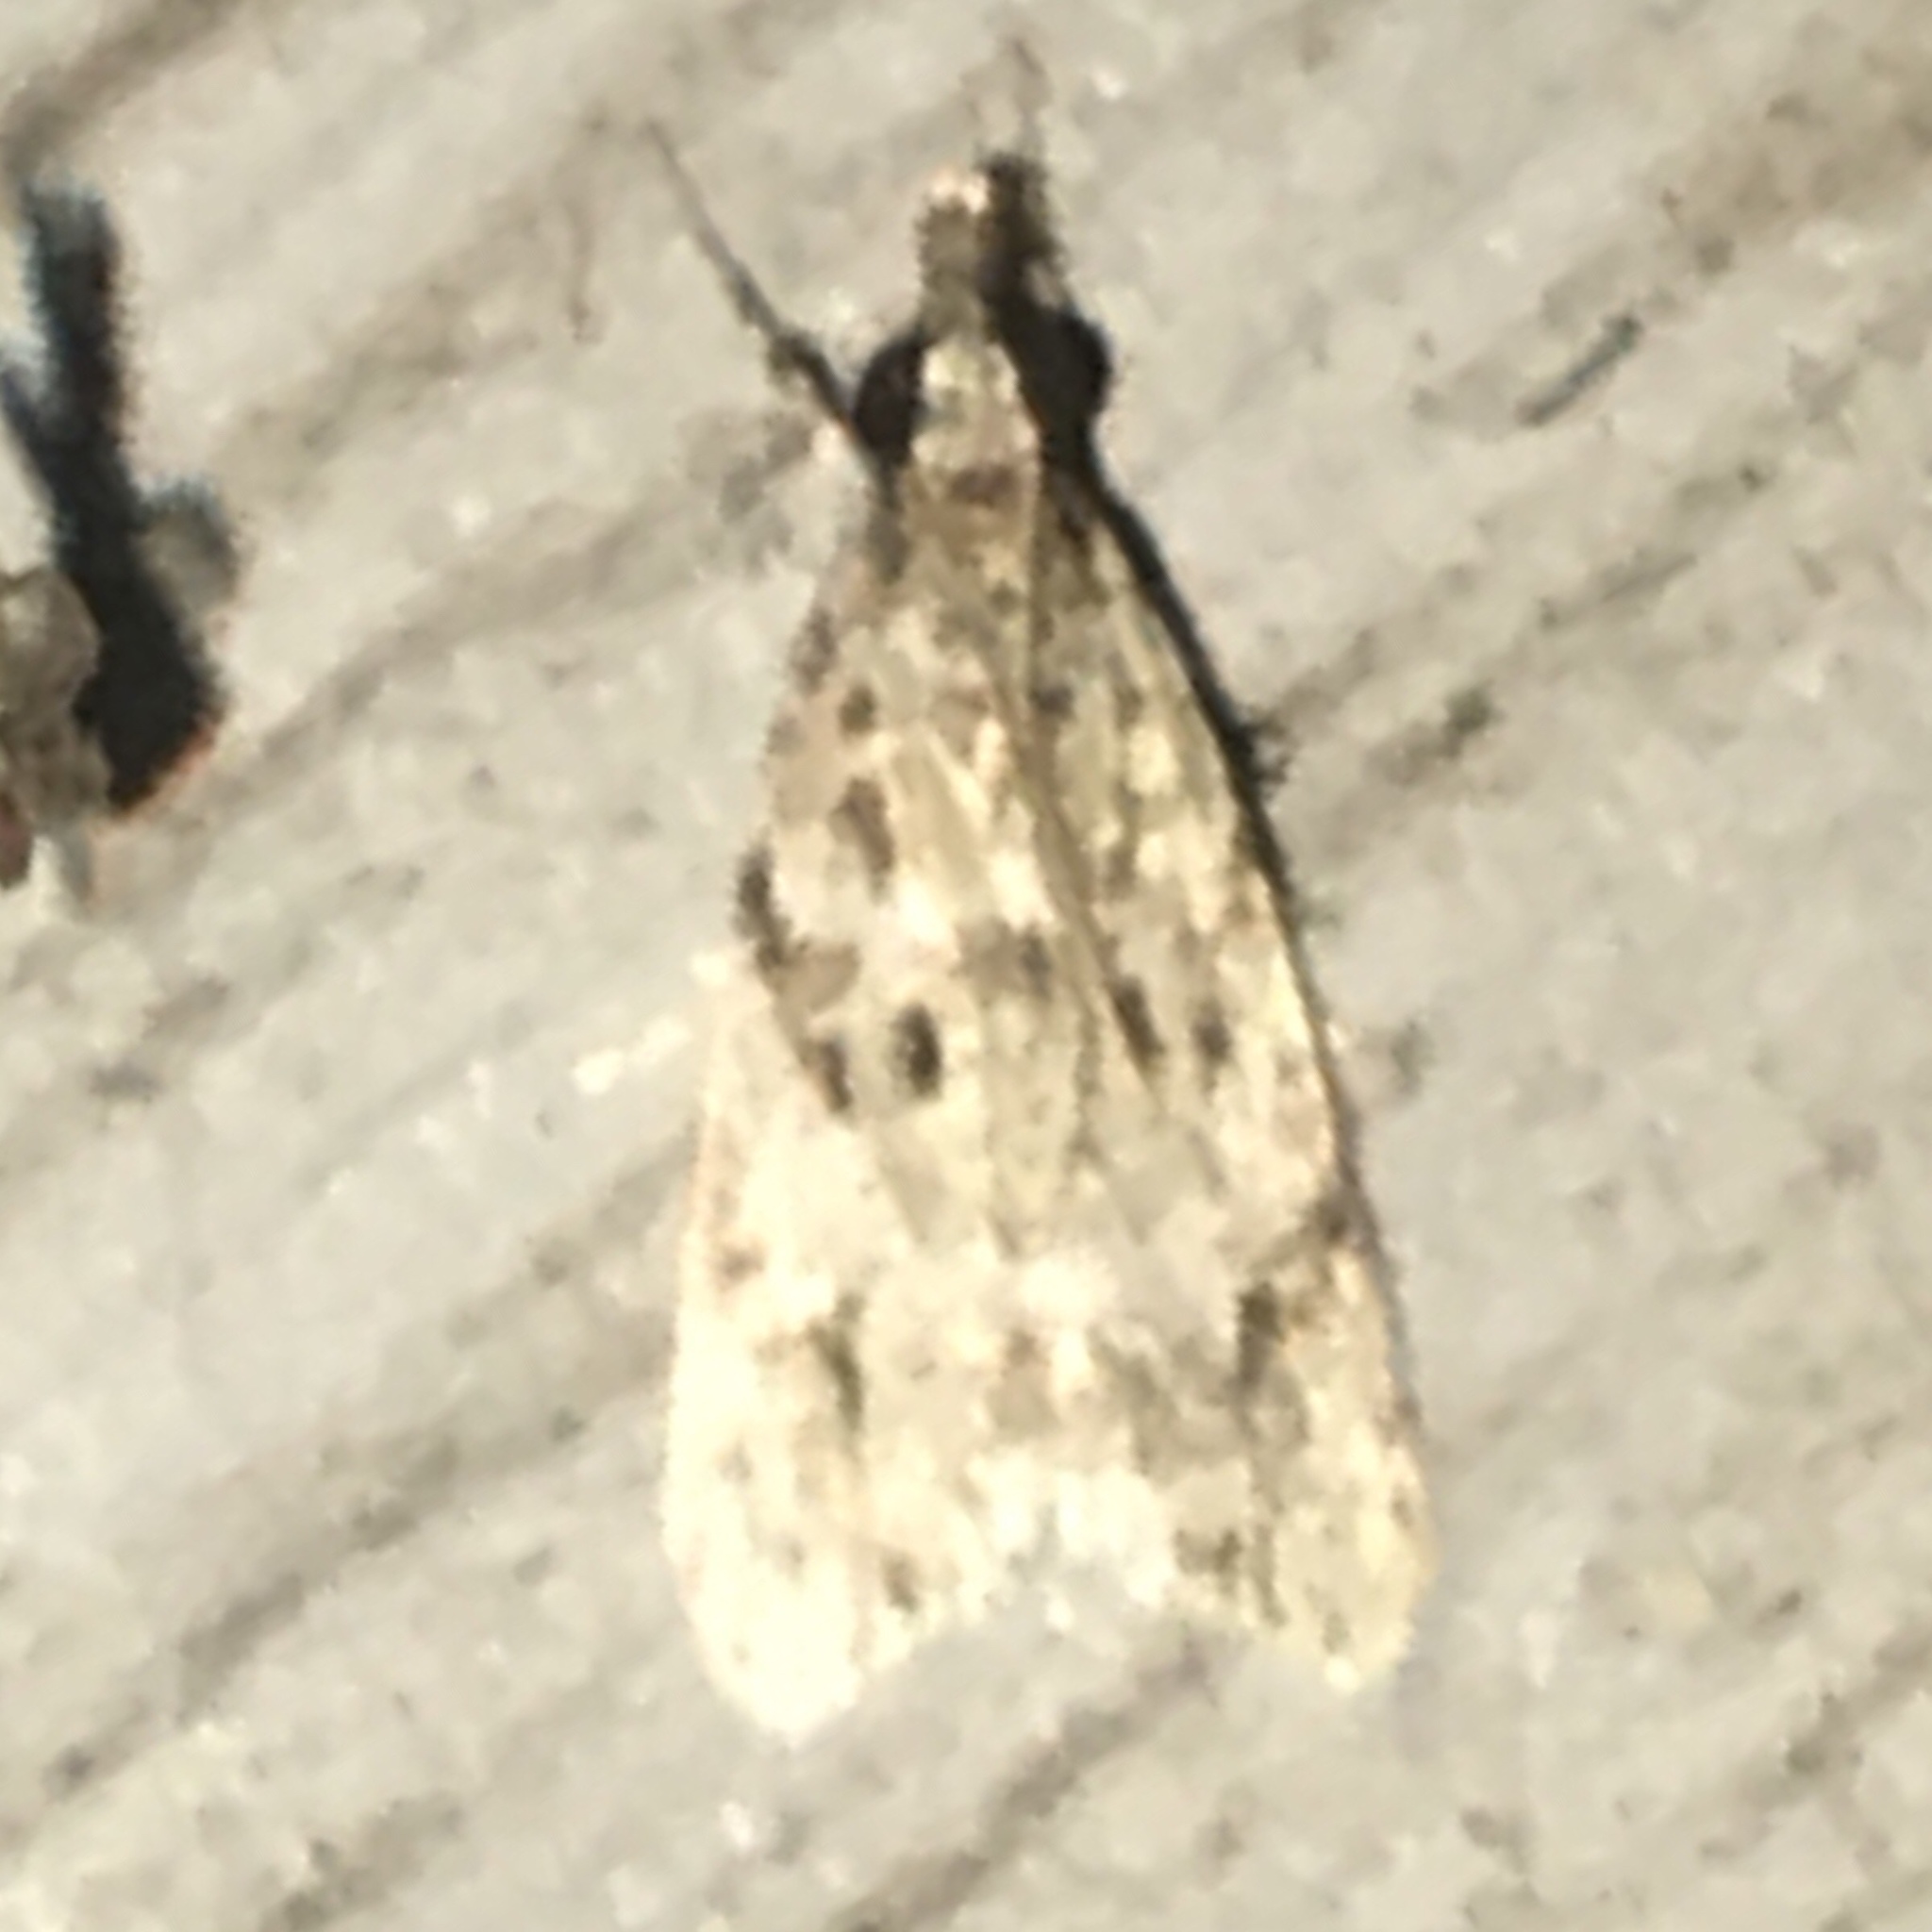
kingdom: Animalia
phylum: Arthropoda
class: Insecta
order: Lepidoptera
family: Crambidae
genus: Eudonia
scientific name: Eudonia heterosalis
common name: Mcdunnough's eudonia
